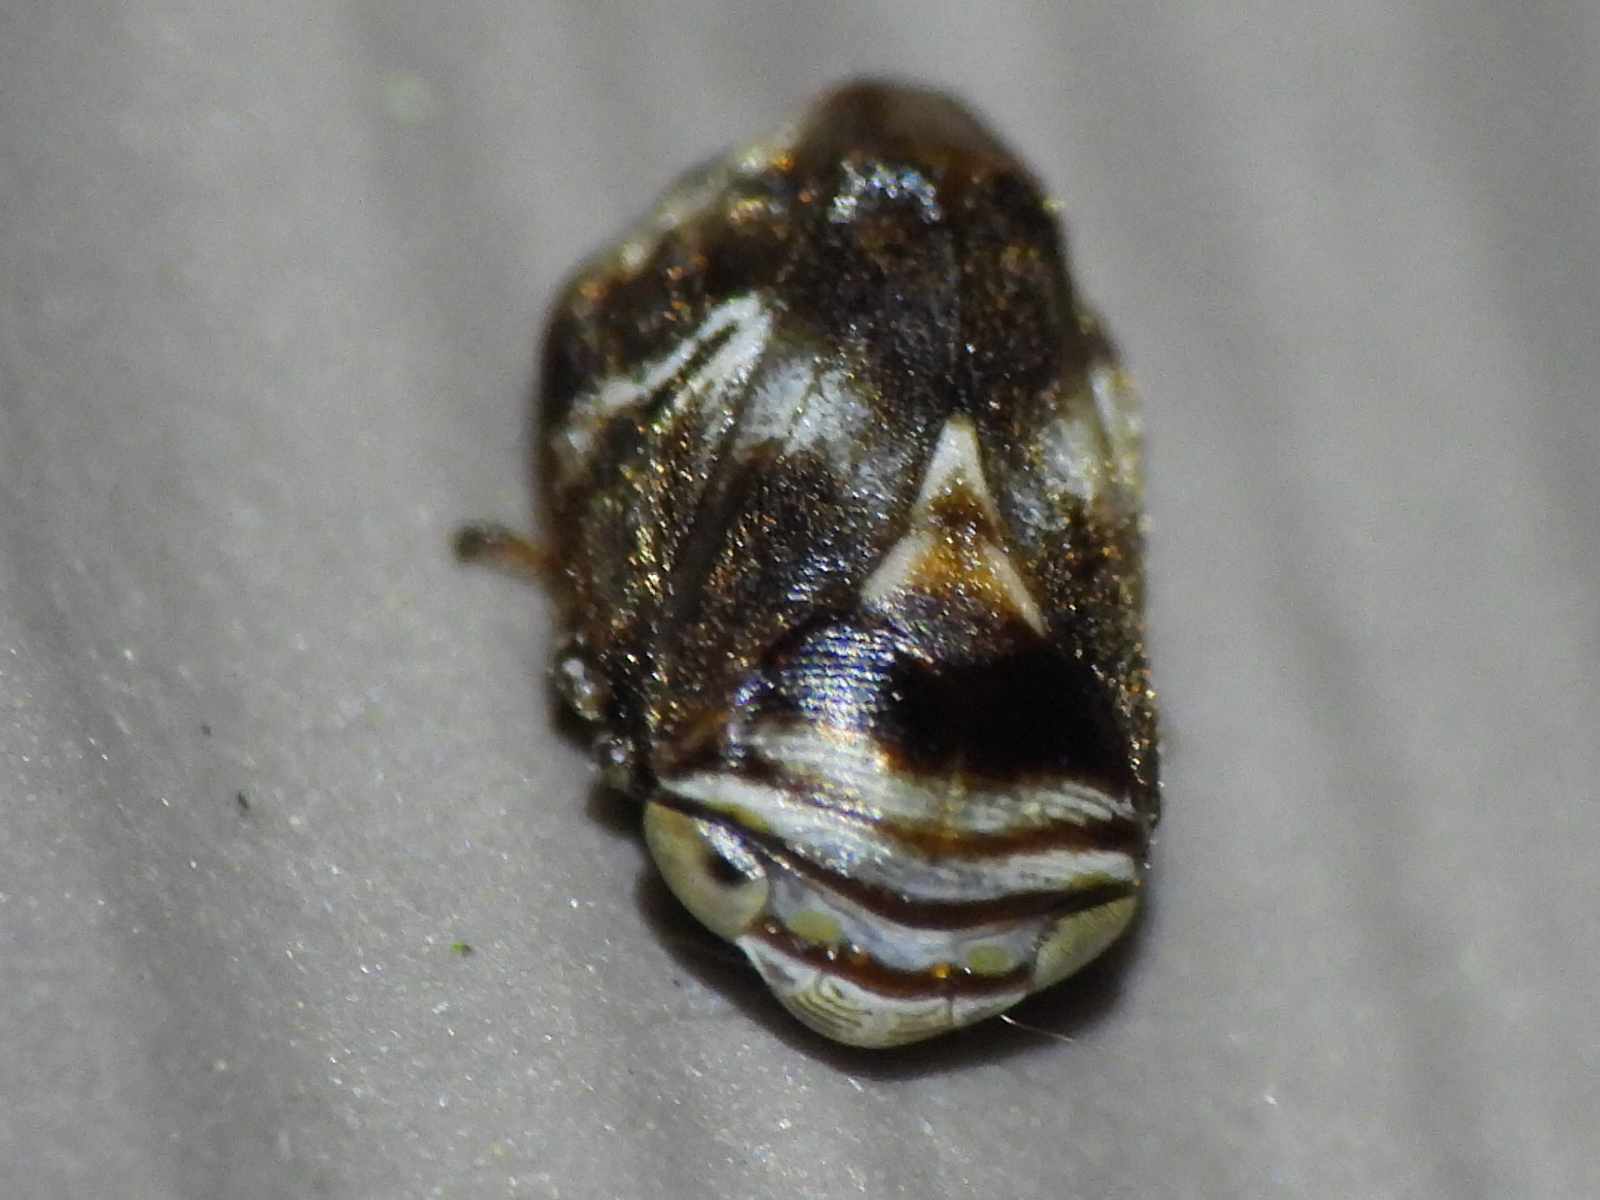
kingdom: Animalia
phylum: Arthropoda
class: Insecta
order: Hemiptera
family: Clastopteridae
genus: Clastoptera
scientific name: Clastoptera obtusa
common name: Alder spittlebug
